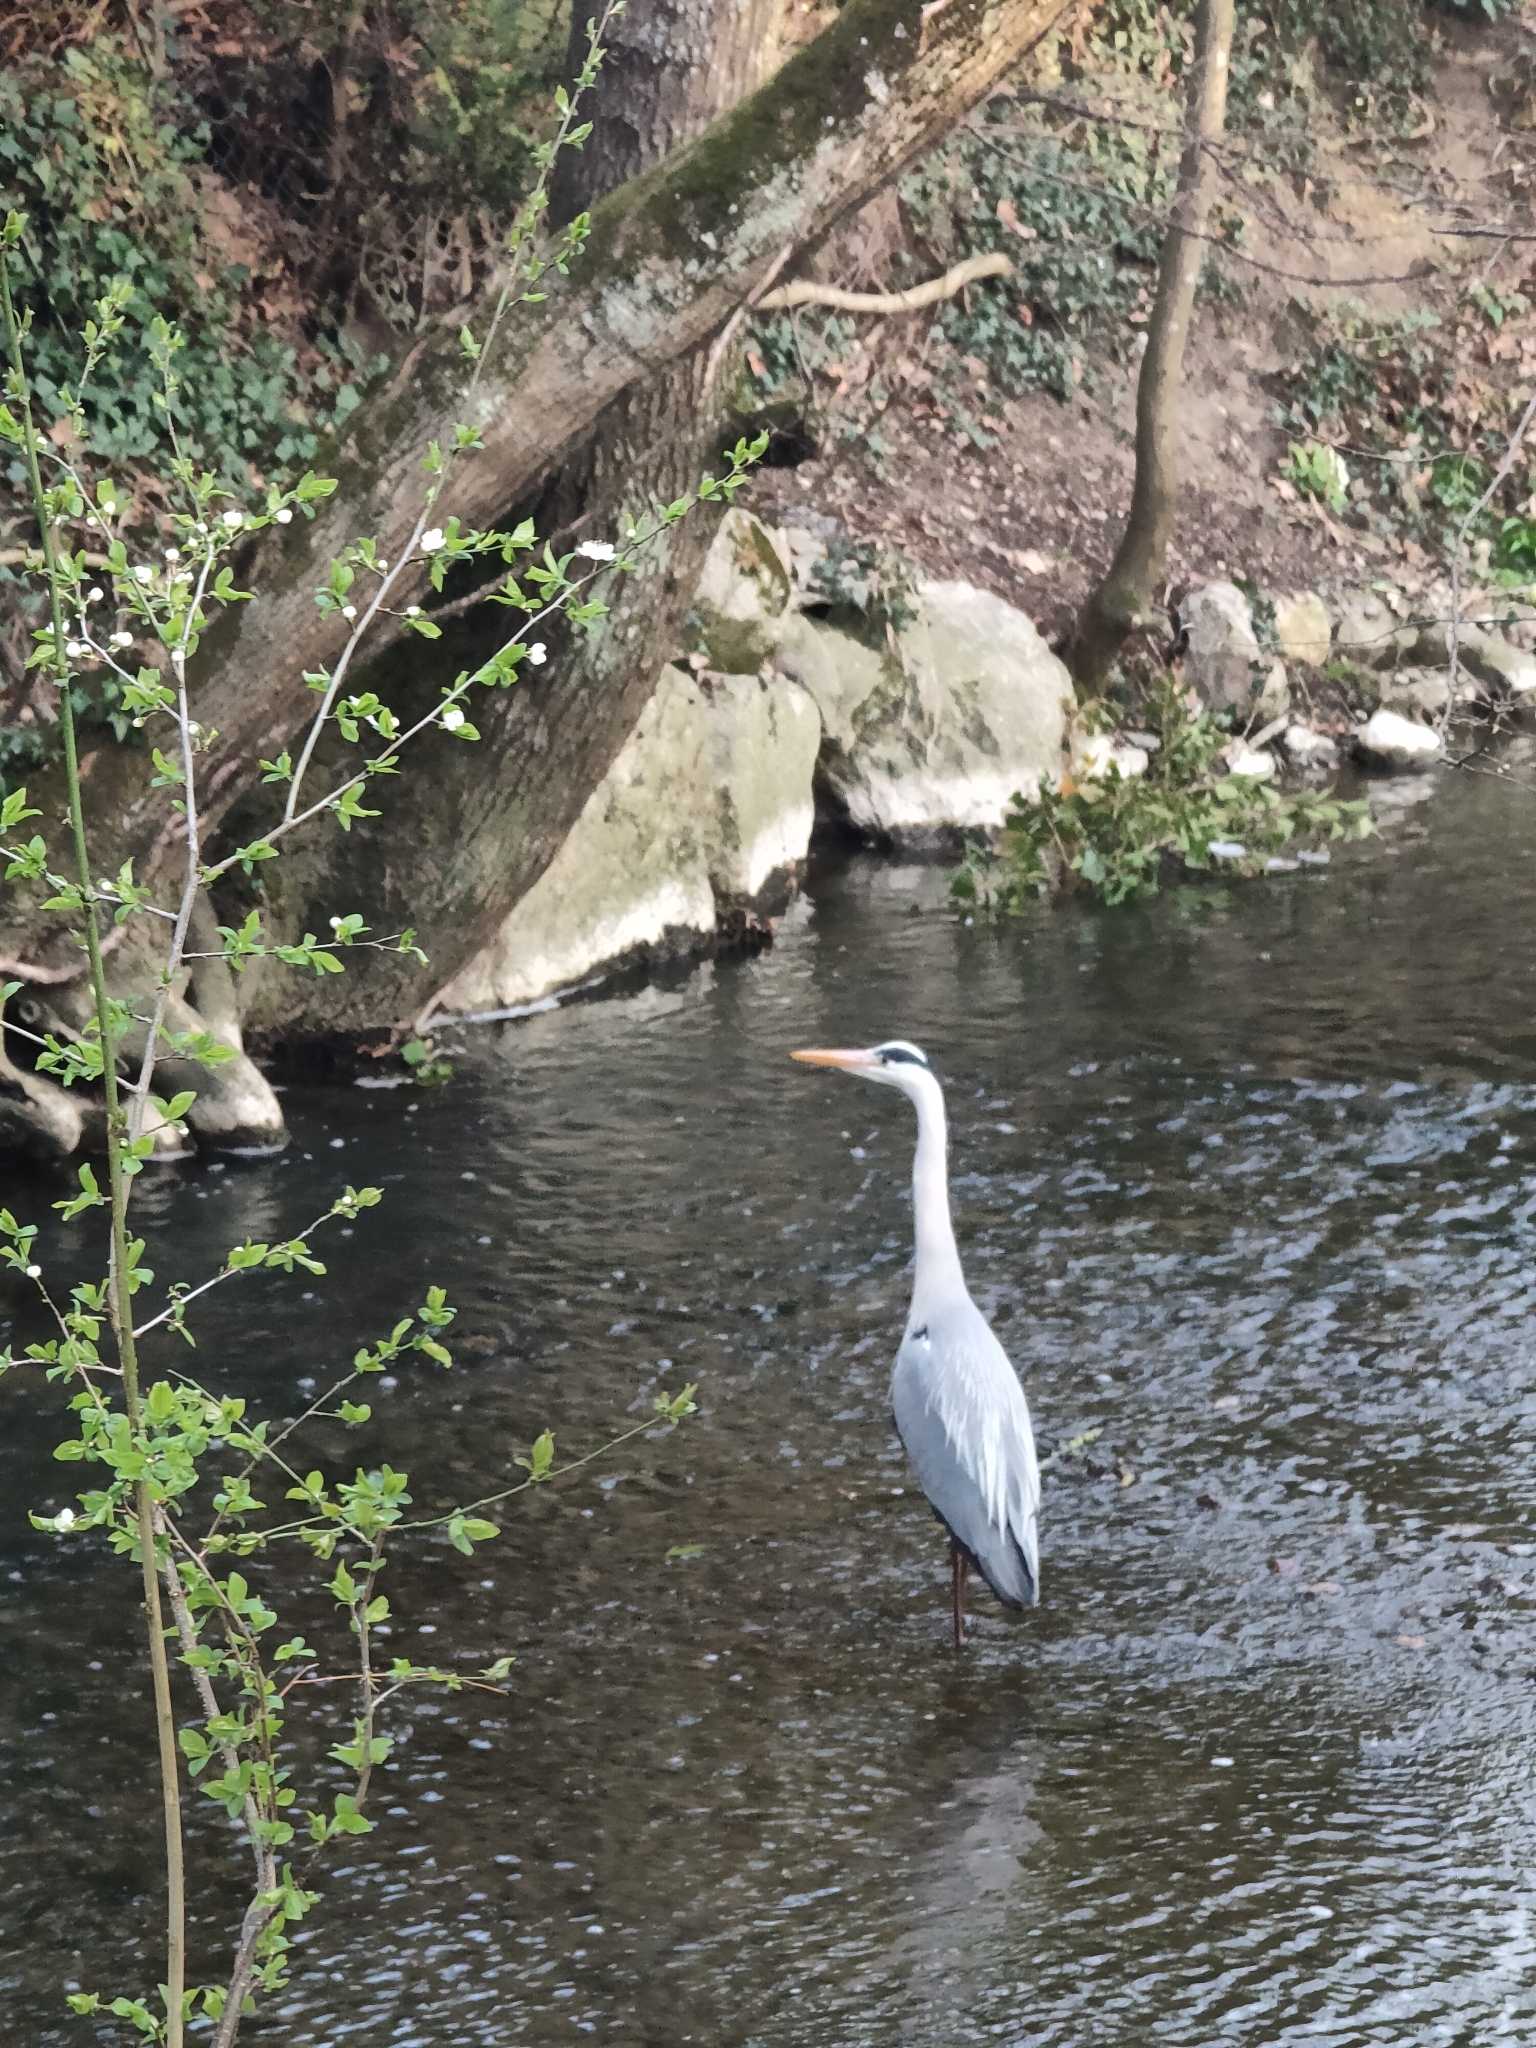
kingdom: Animalia
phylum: Chordata
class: Aves
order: Pelecaniformes
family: Ardeidae
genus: Ardea
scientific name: Ardea cinerea
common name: Grey heron
